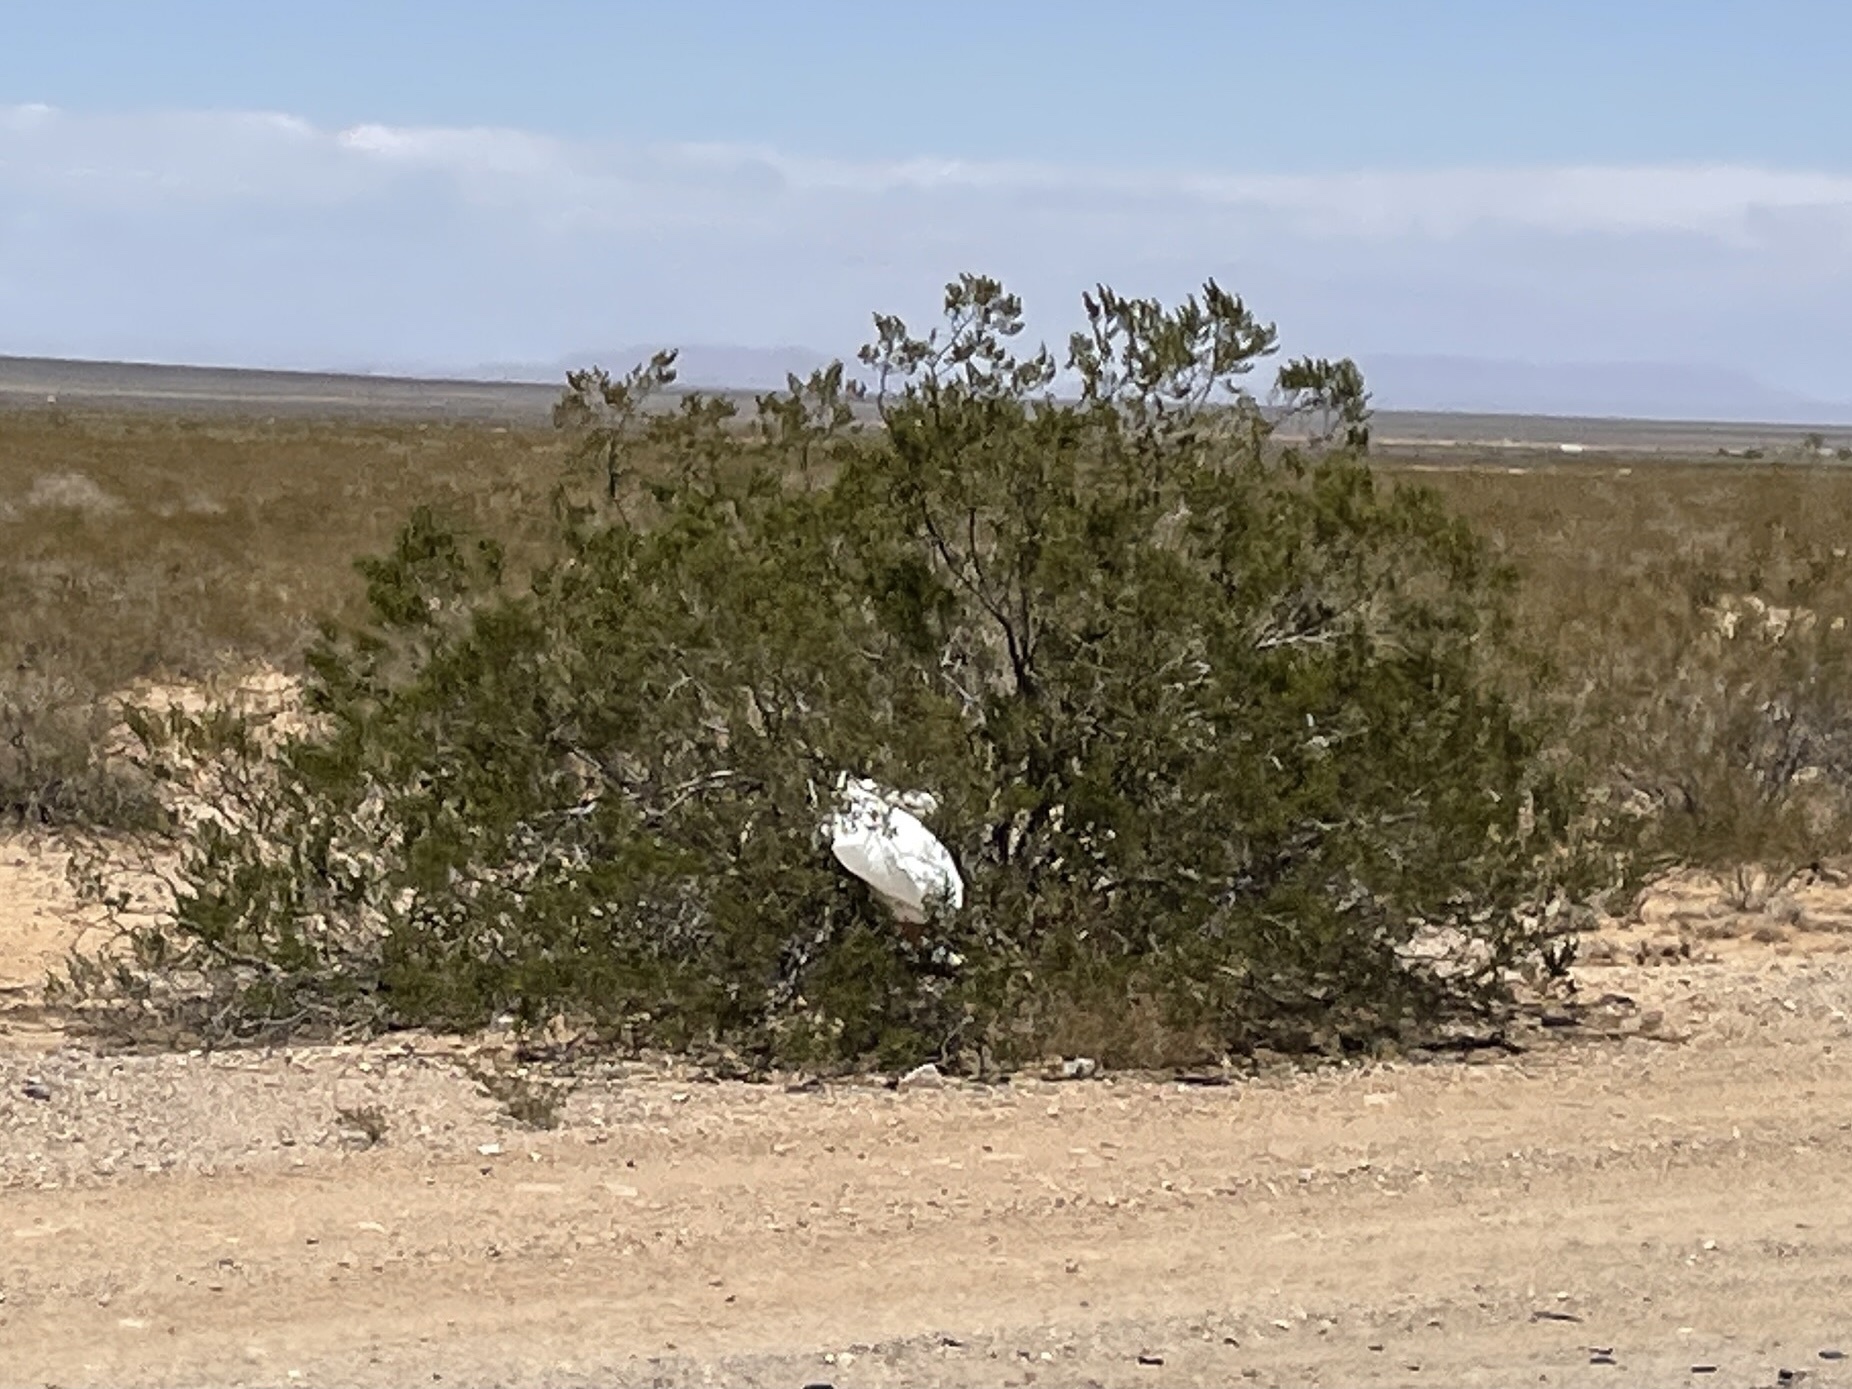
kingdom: Plantae
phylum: Tracheophyta
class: Magnoliopsida
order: Zygophyllales
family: Zygophyllaceae
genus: Larrea
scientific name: Larrea tridentata
